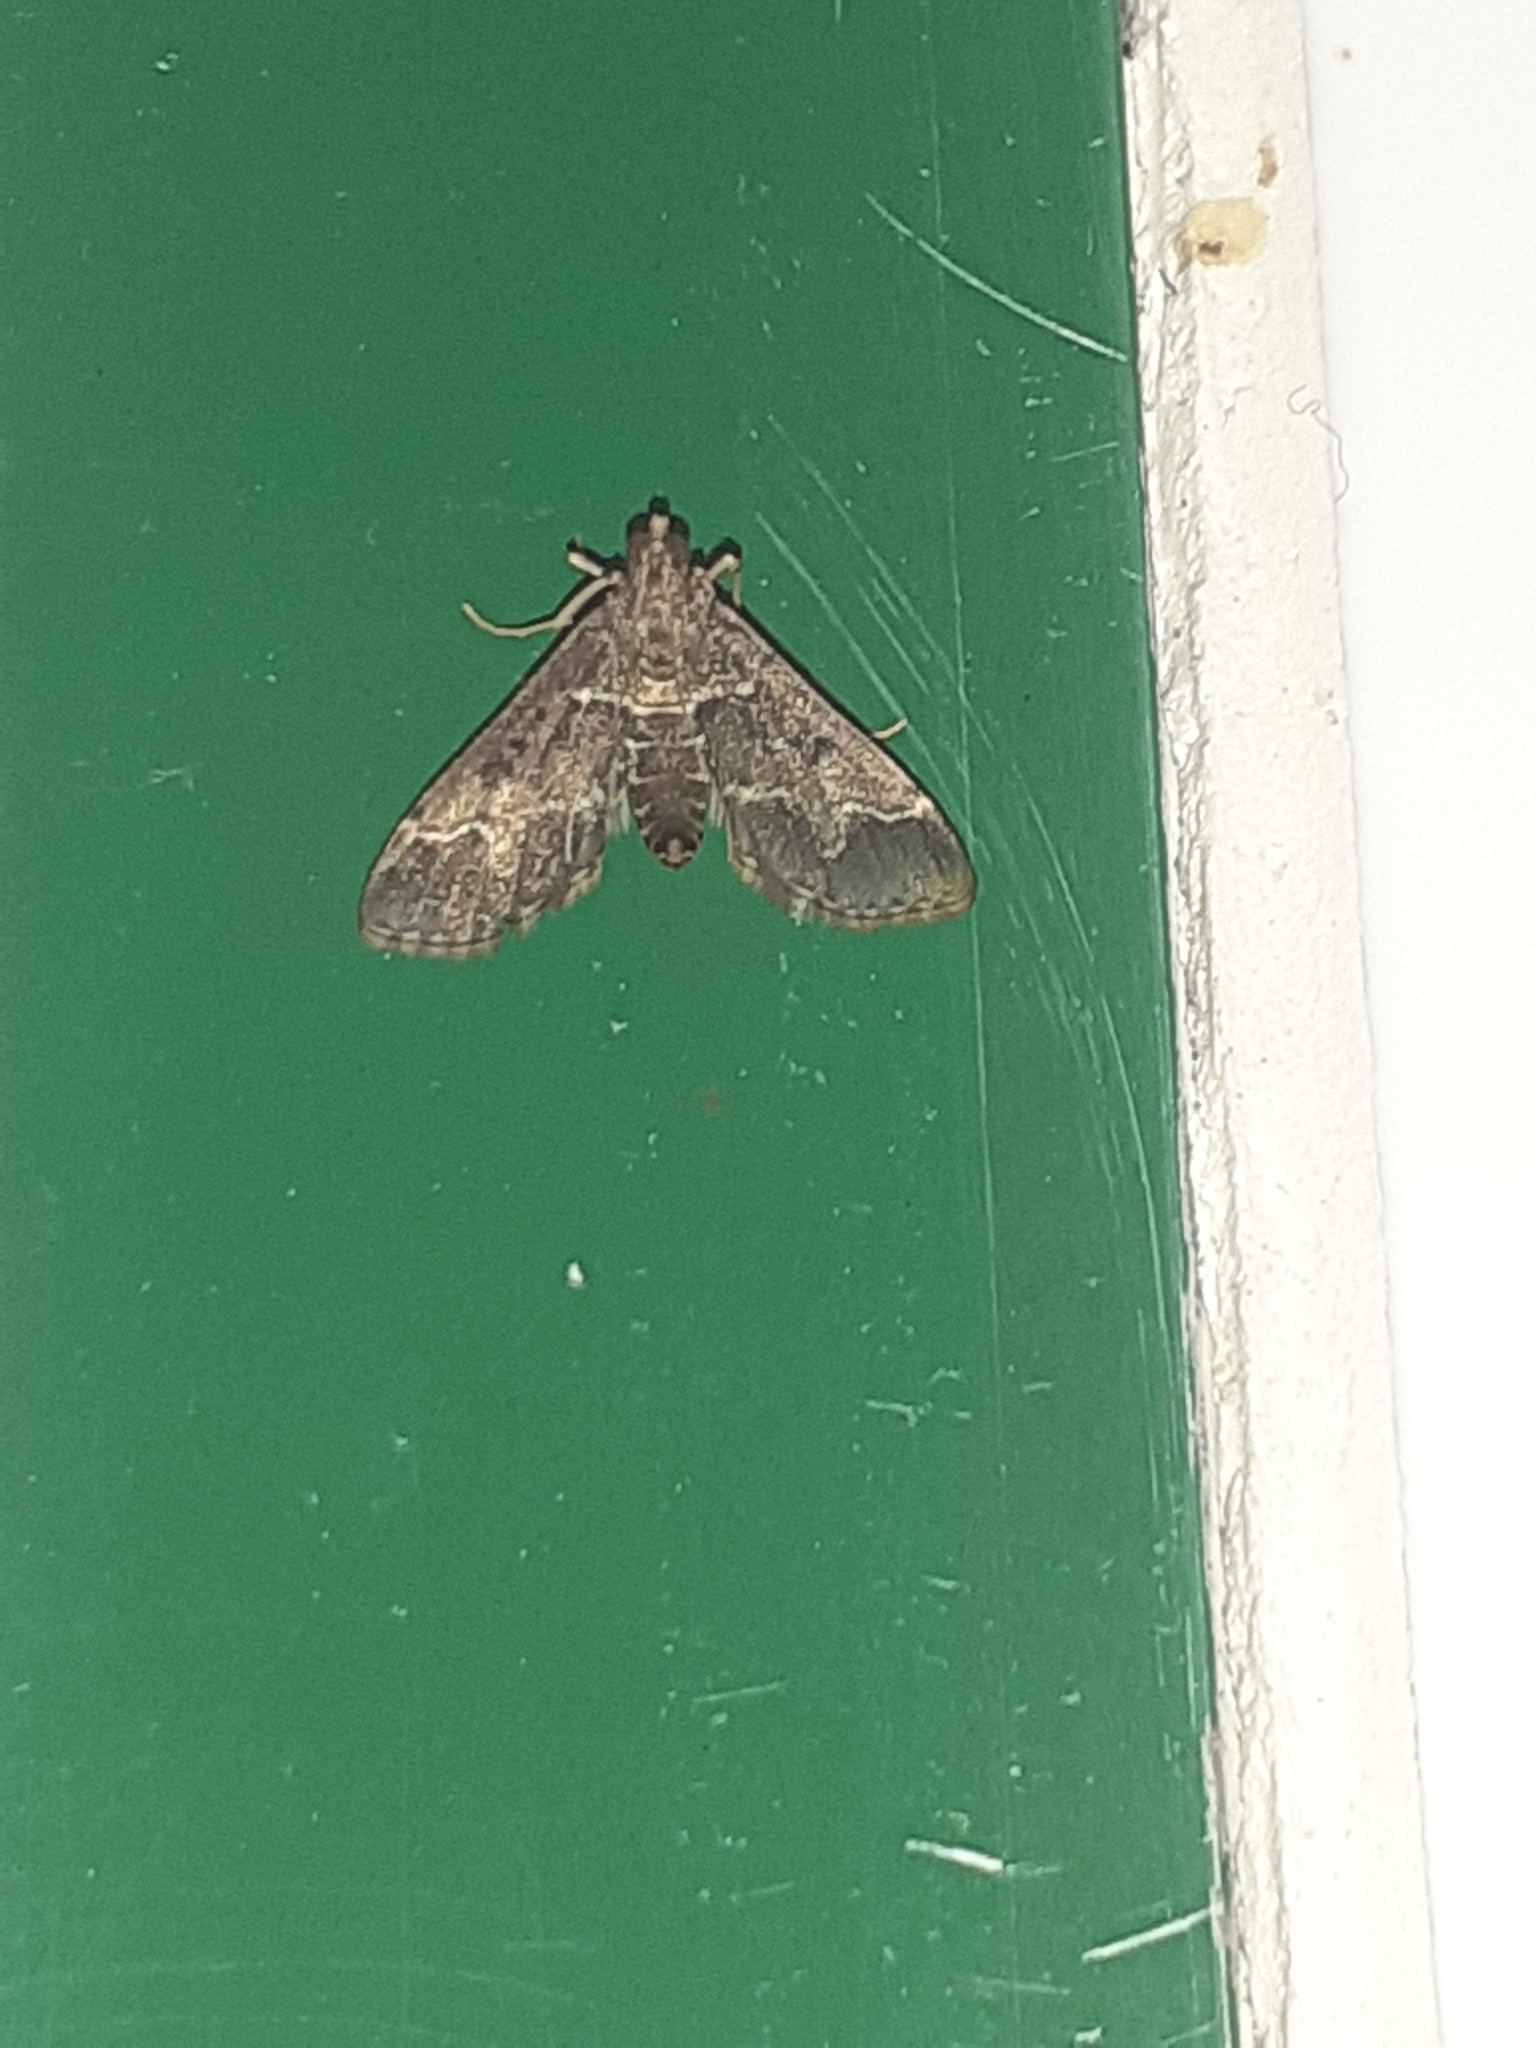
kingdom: Animalia
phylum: Arthropoda
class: Insecta
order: Lepidoptera
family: Crambidae
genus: Duponchelia
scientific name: Duponchelia fovealis
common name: Crambid moth
